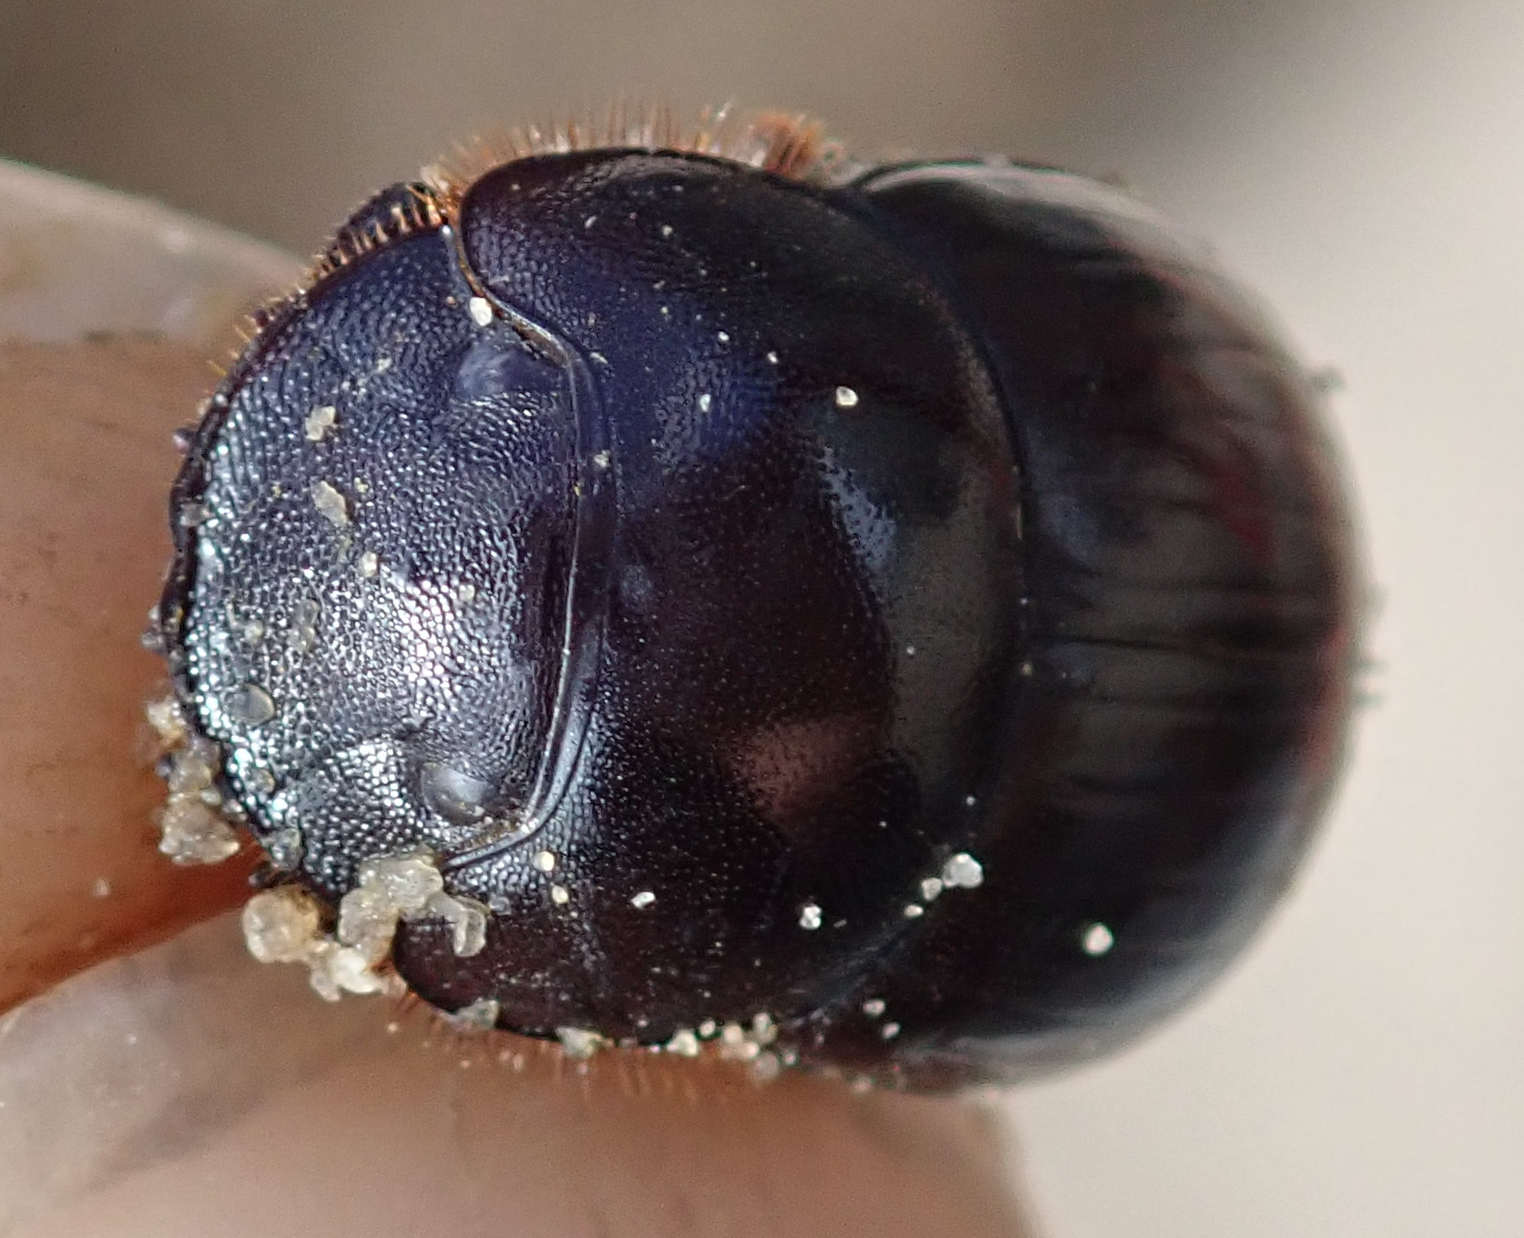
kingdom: Animalia
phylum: Arthropoda
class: Insecta
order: Coleoptera
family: Scarabaeidae
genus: Metacatharsius
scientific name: Metacatharsius marani
